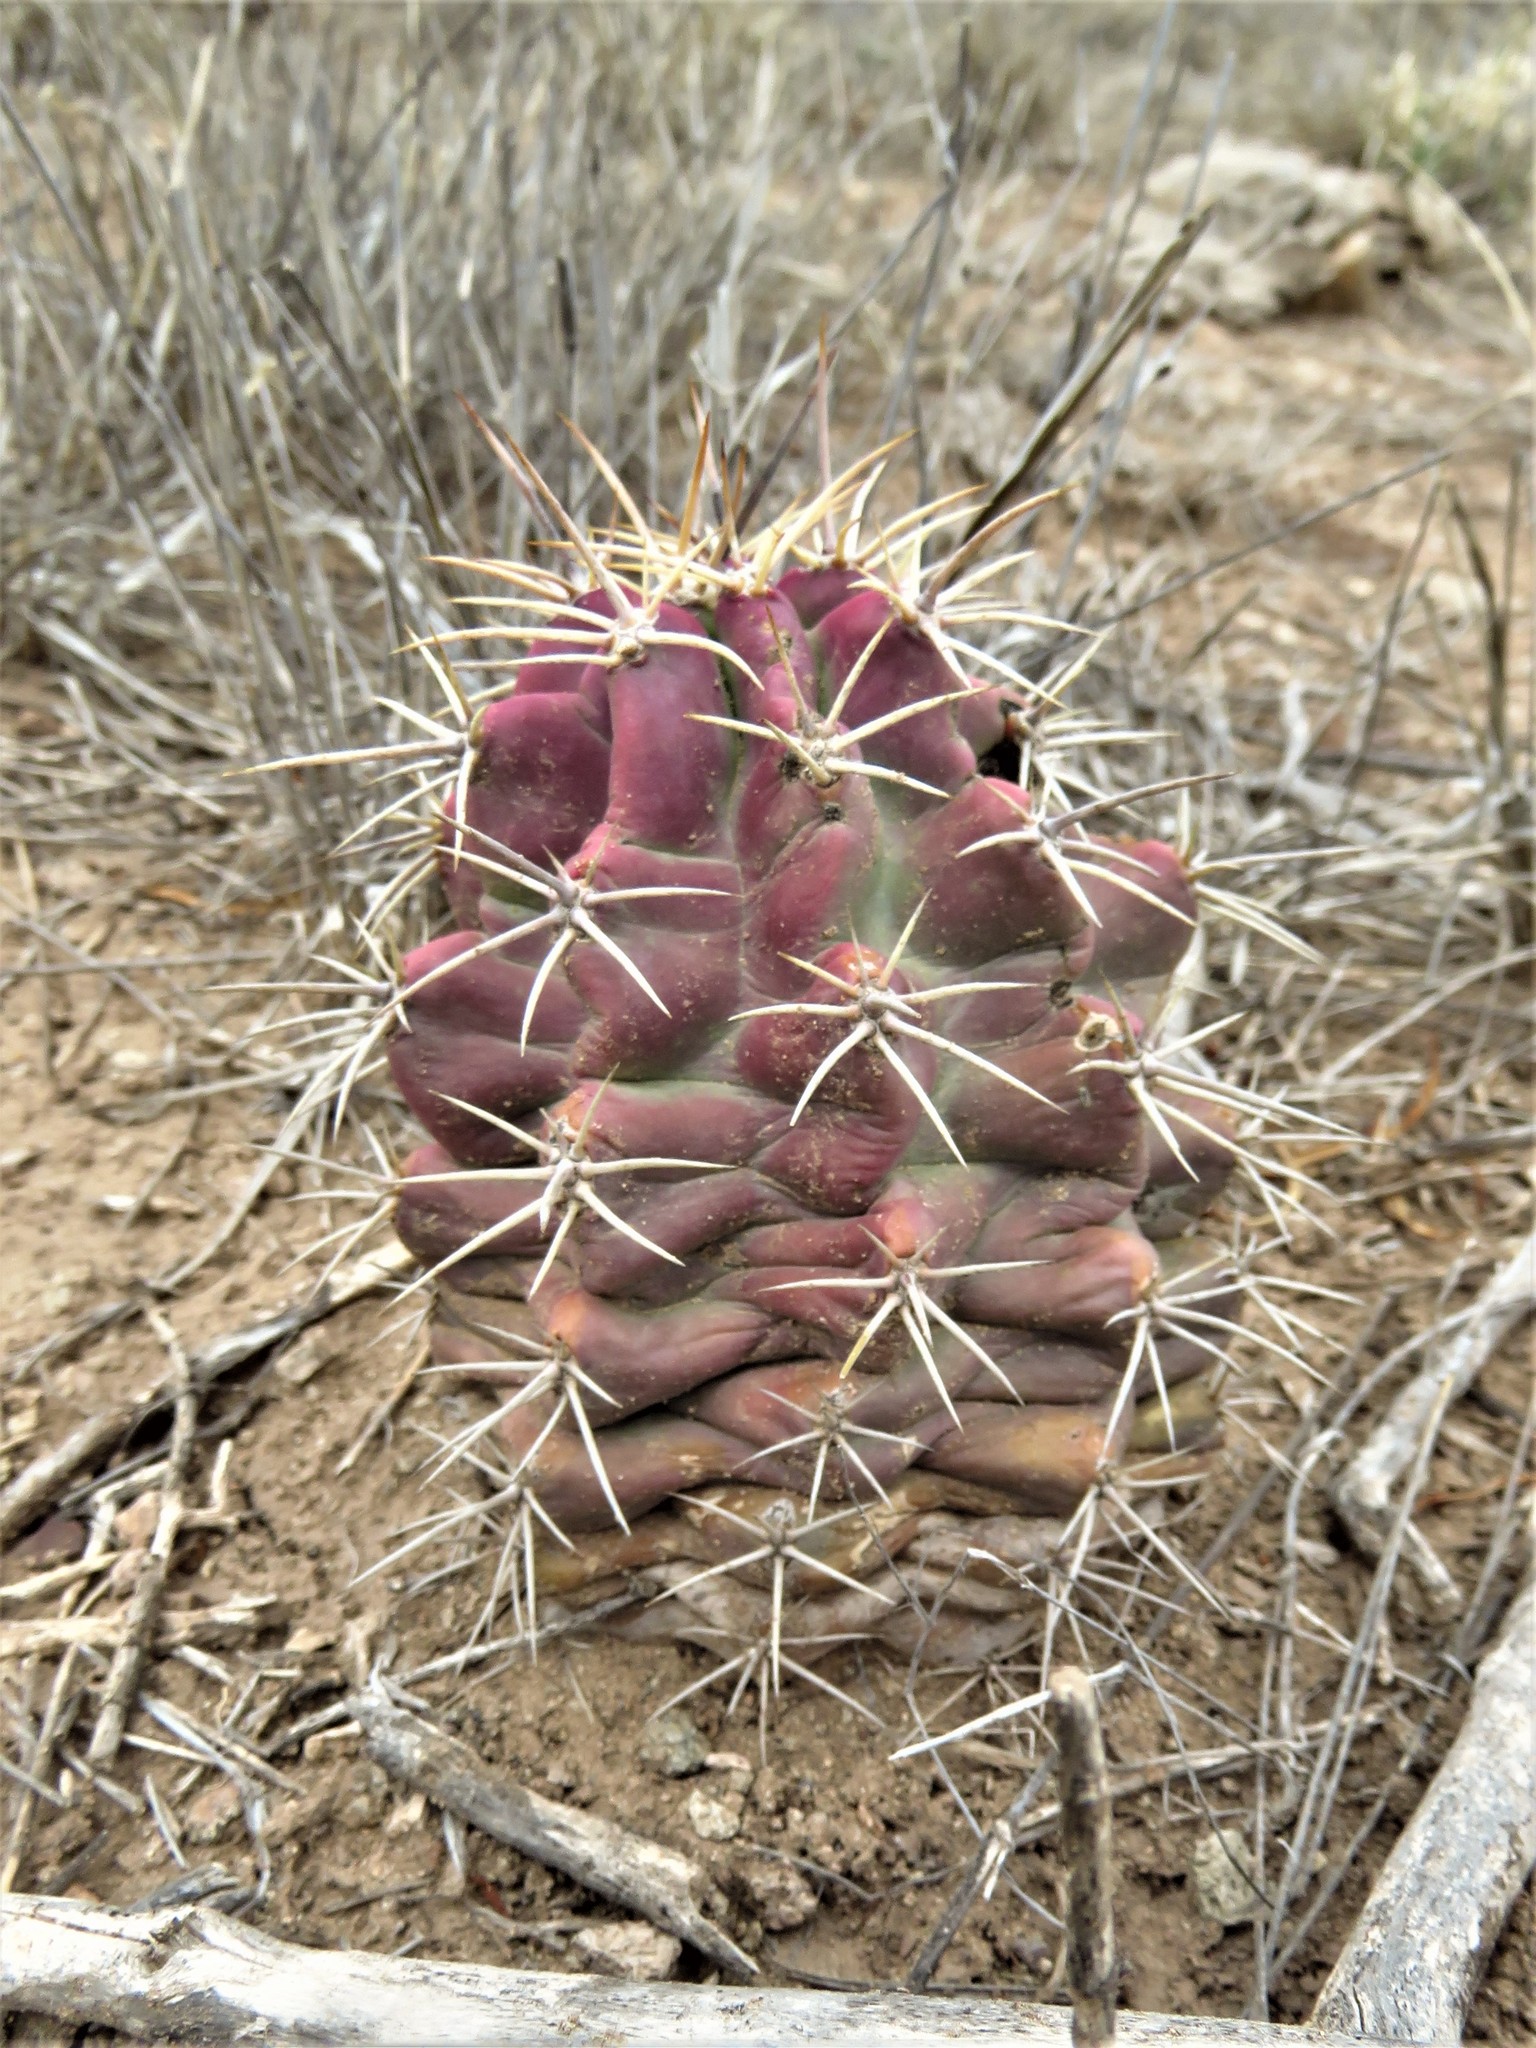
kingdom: Plantae
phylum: Tracheophyta
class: Magnoliopsida
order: Caryophyllales
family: Cactaceae
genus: Echinocereus
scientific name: Echinocereus coccineus
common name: Scarlet hedgehog cactus
